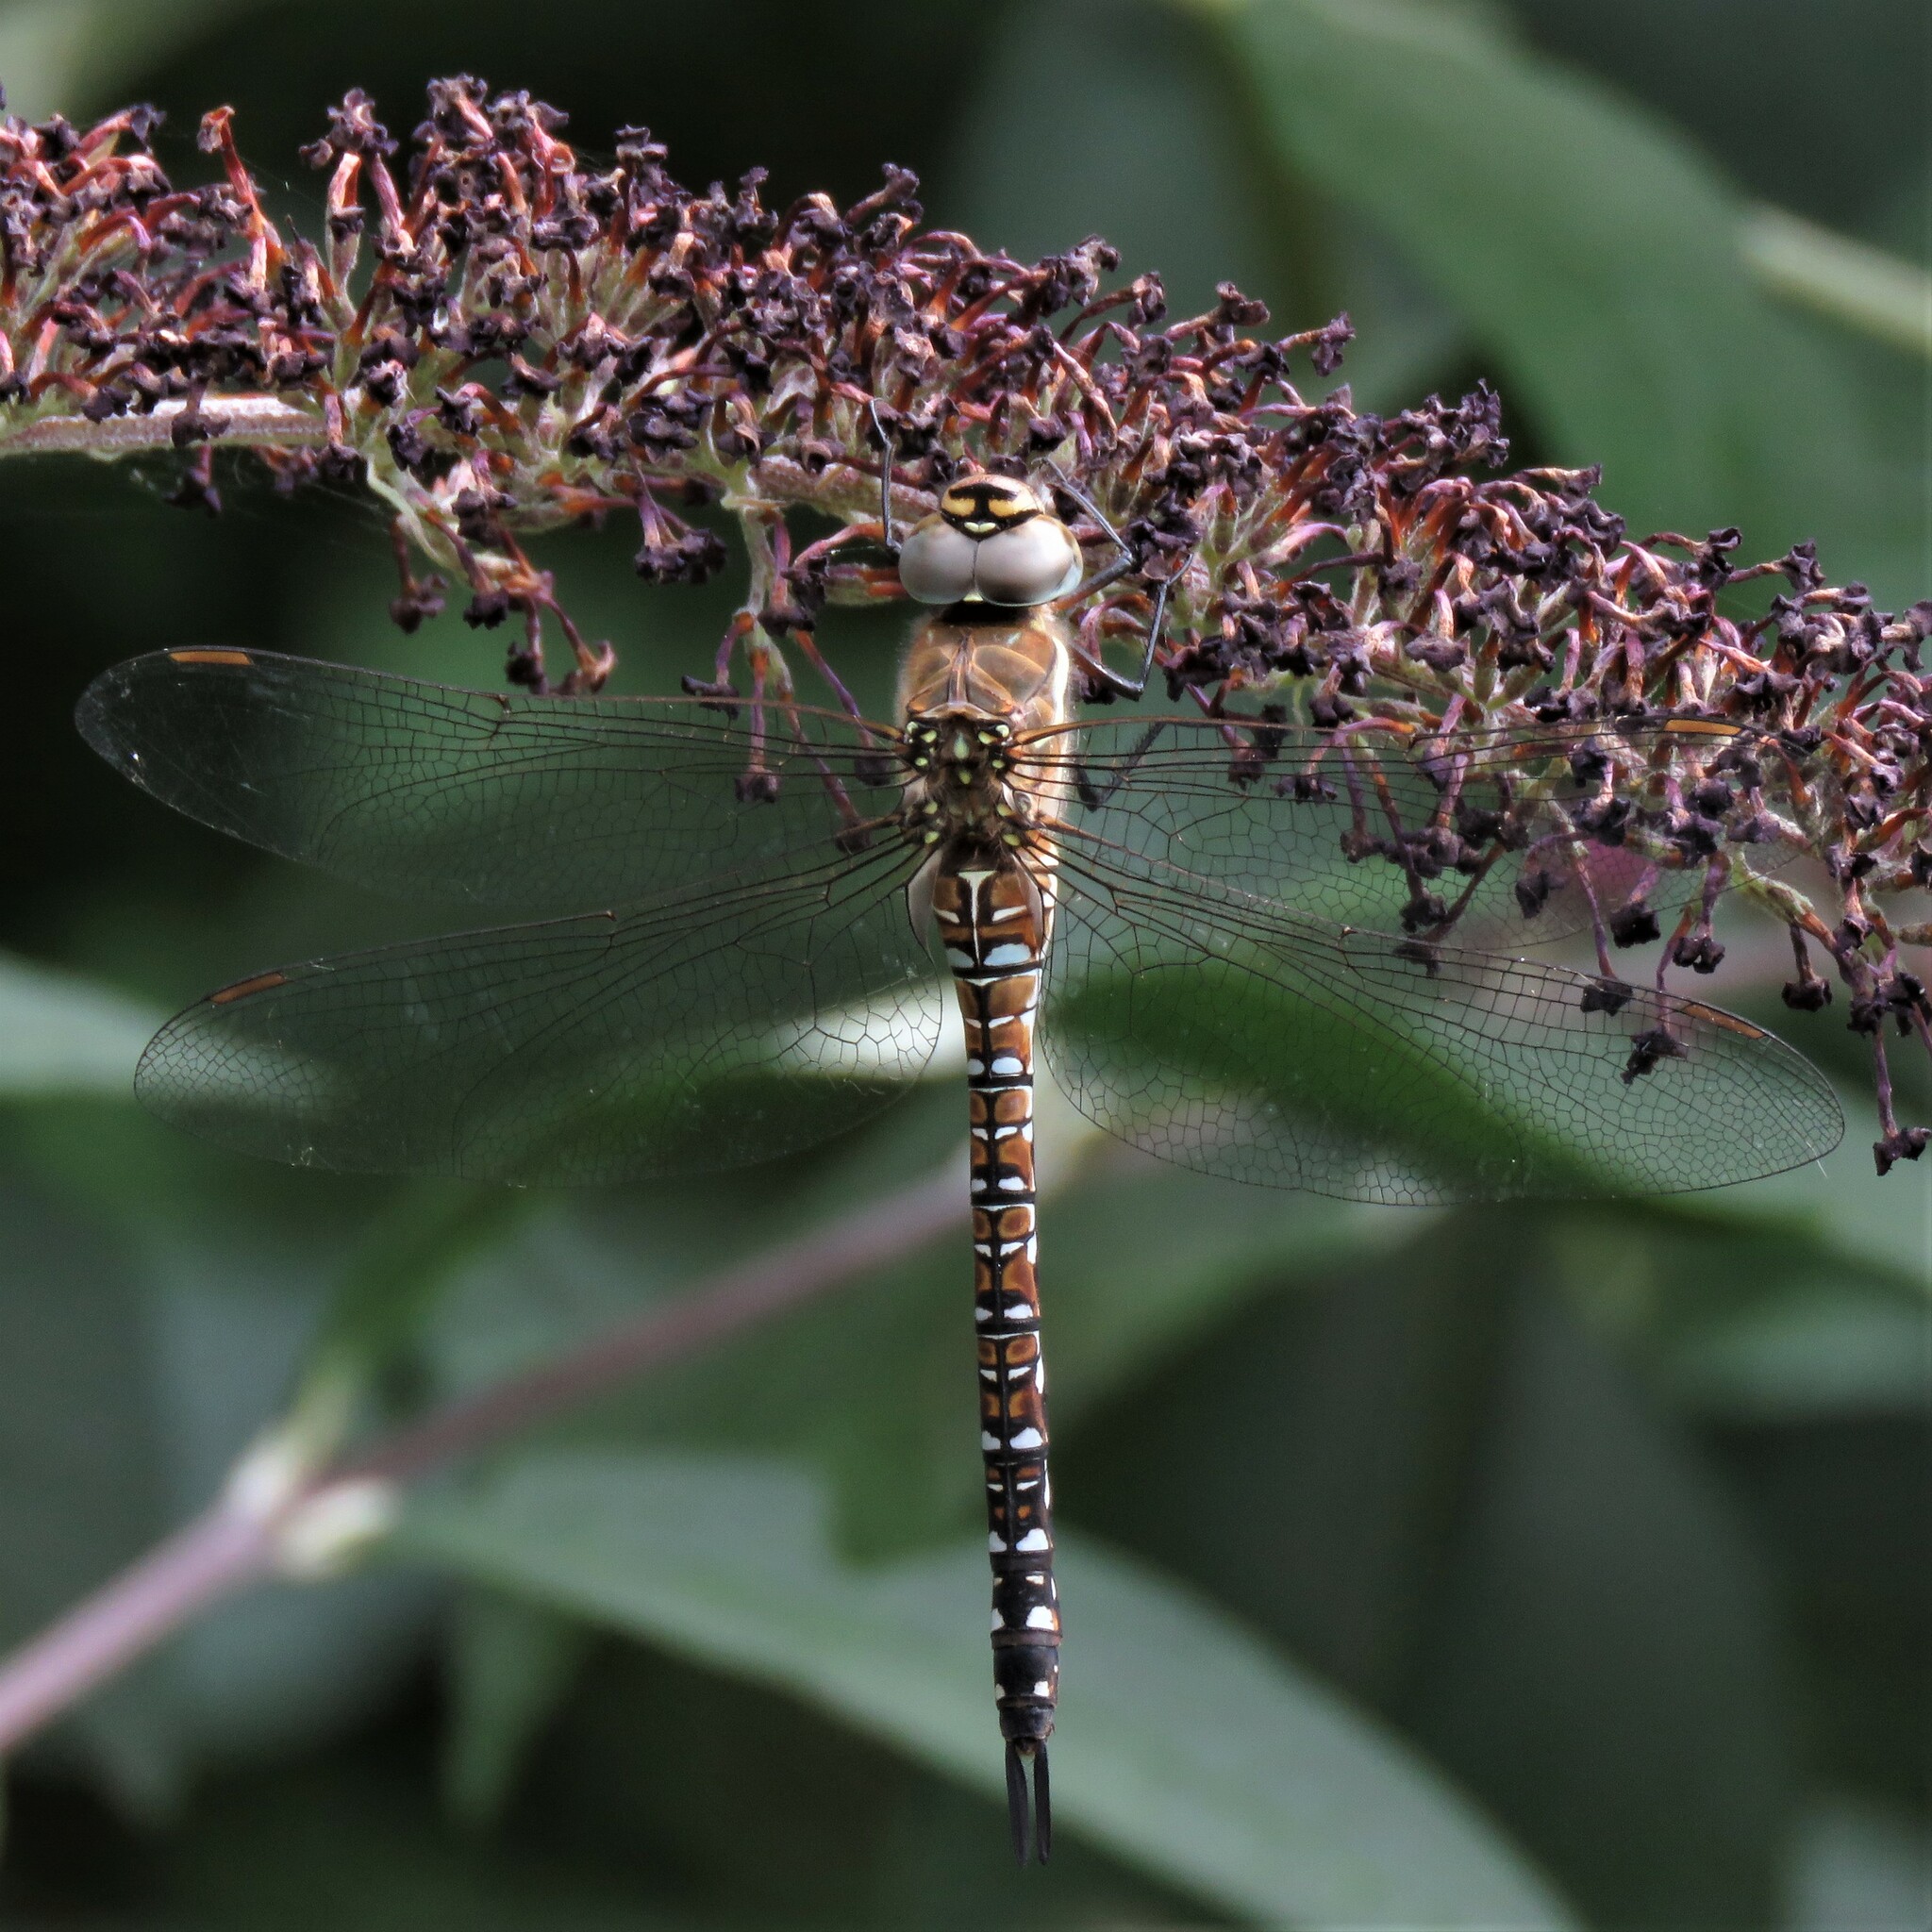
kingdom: Animalia
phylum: Arthropoda
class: Insecta
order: Odonata
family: Aeshnidae
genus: Aeshna
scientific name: Aeshna mixta
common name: Migrant hawker
